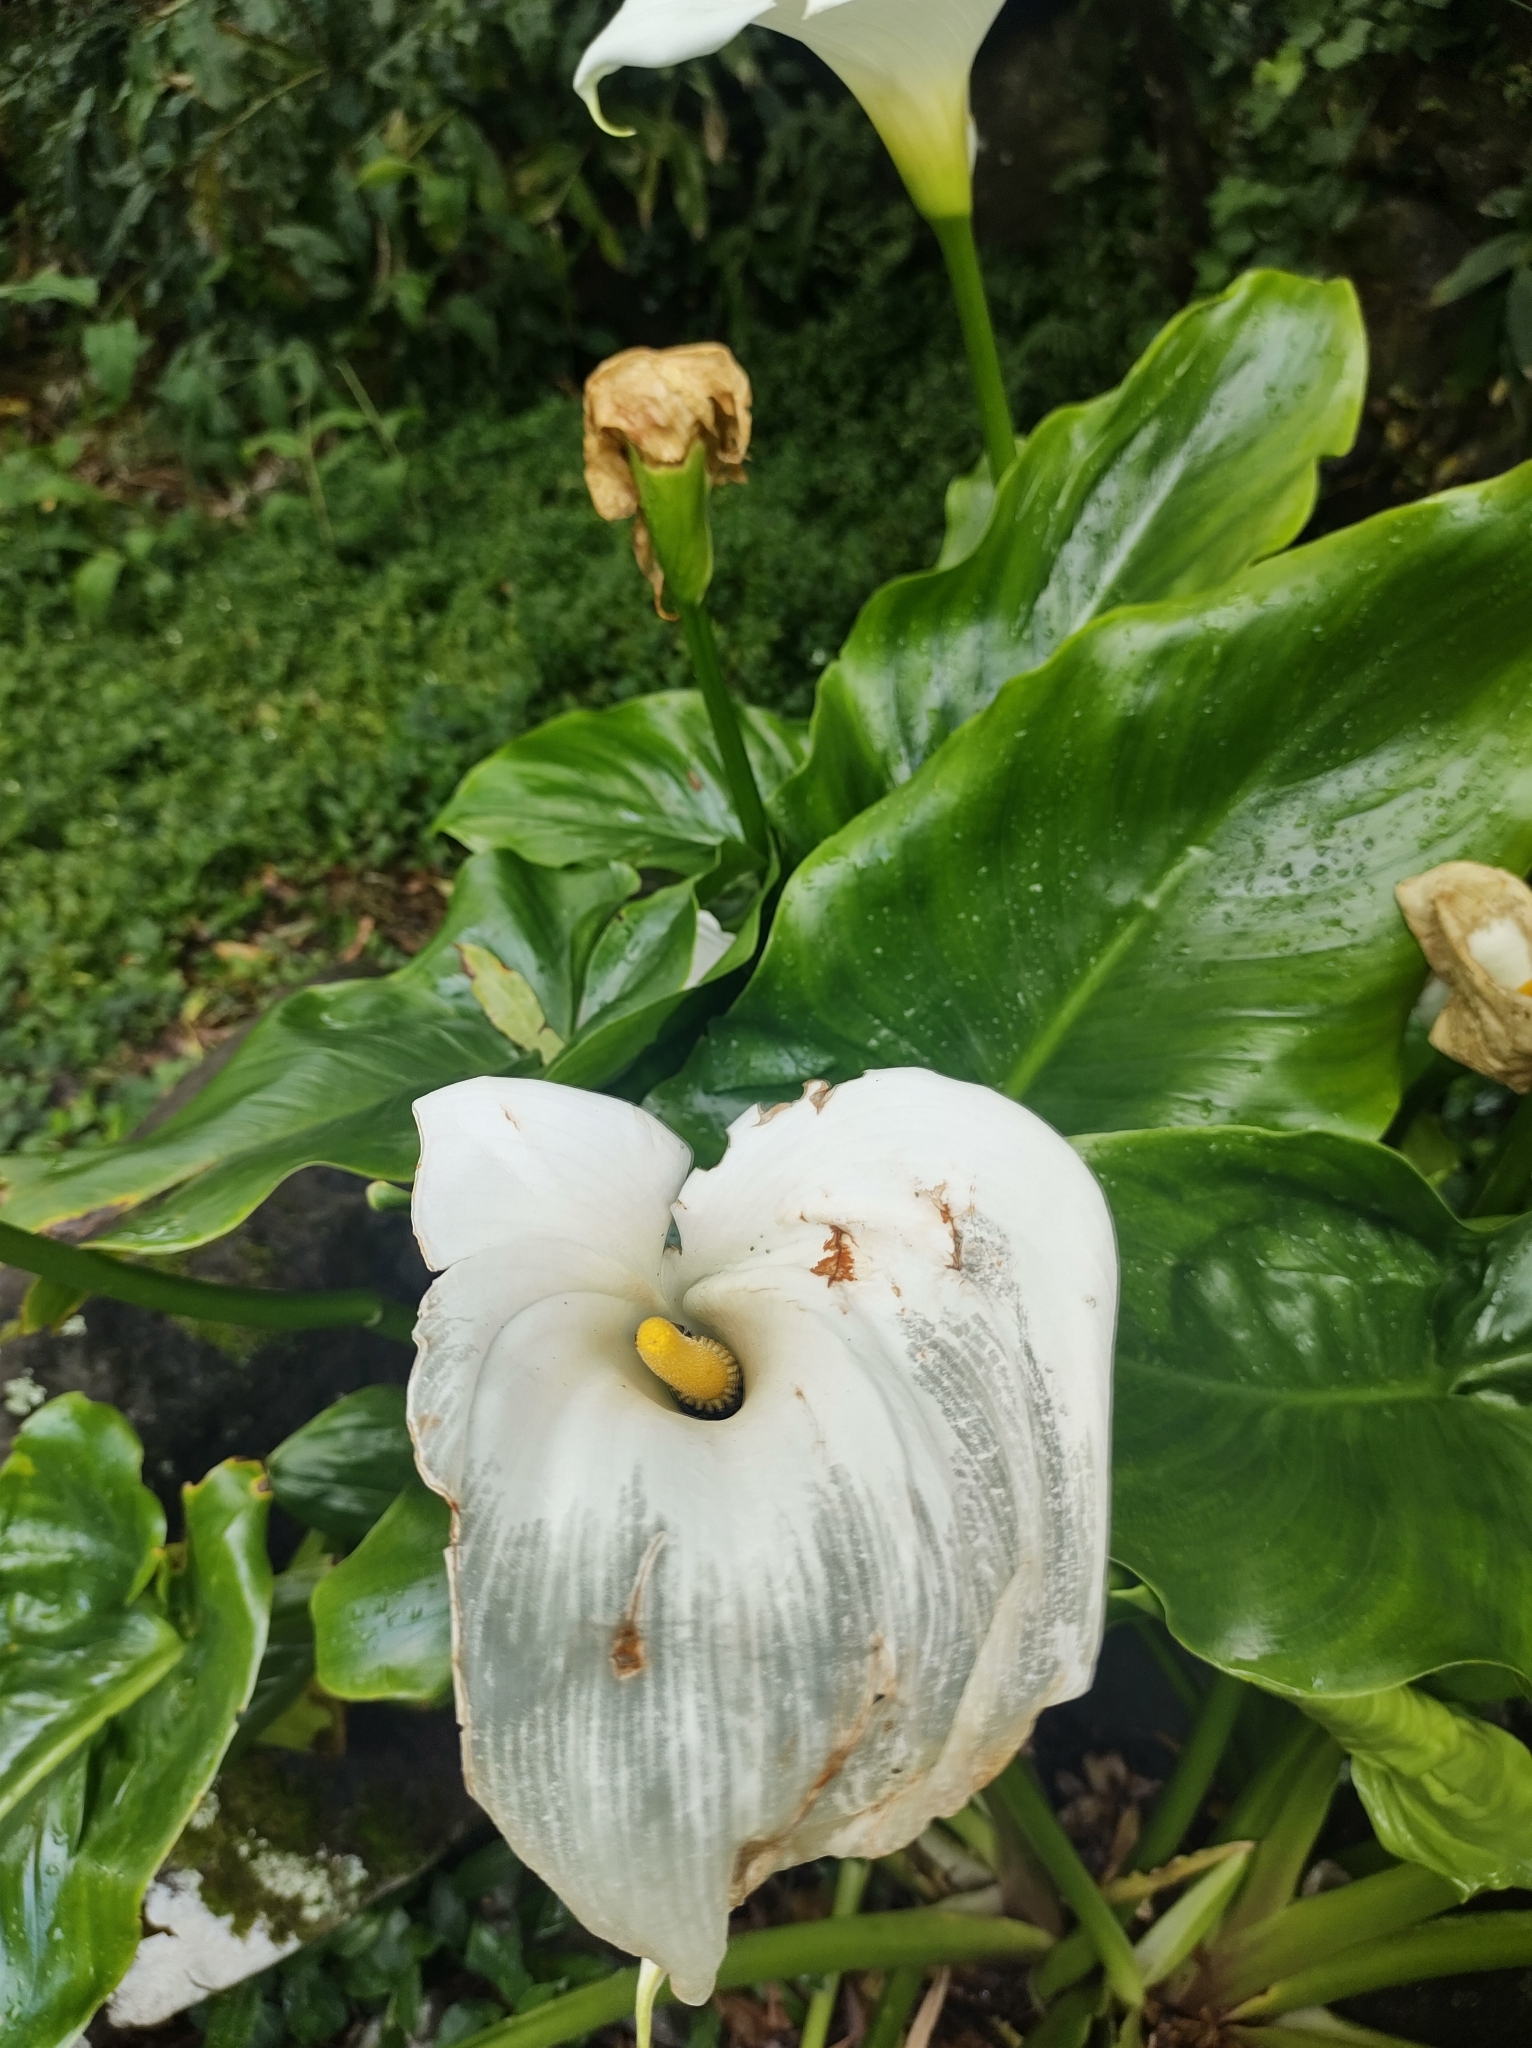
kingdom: Plantae
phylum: Tracheophyta
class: Liliopsida
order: Alismatales
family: Araceae
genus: Zantedeschia
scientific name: Zantedeschia aethiopica
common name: Altar-lily
